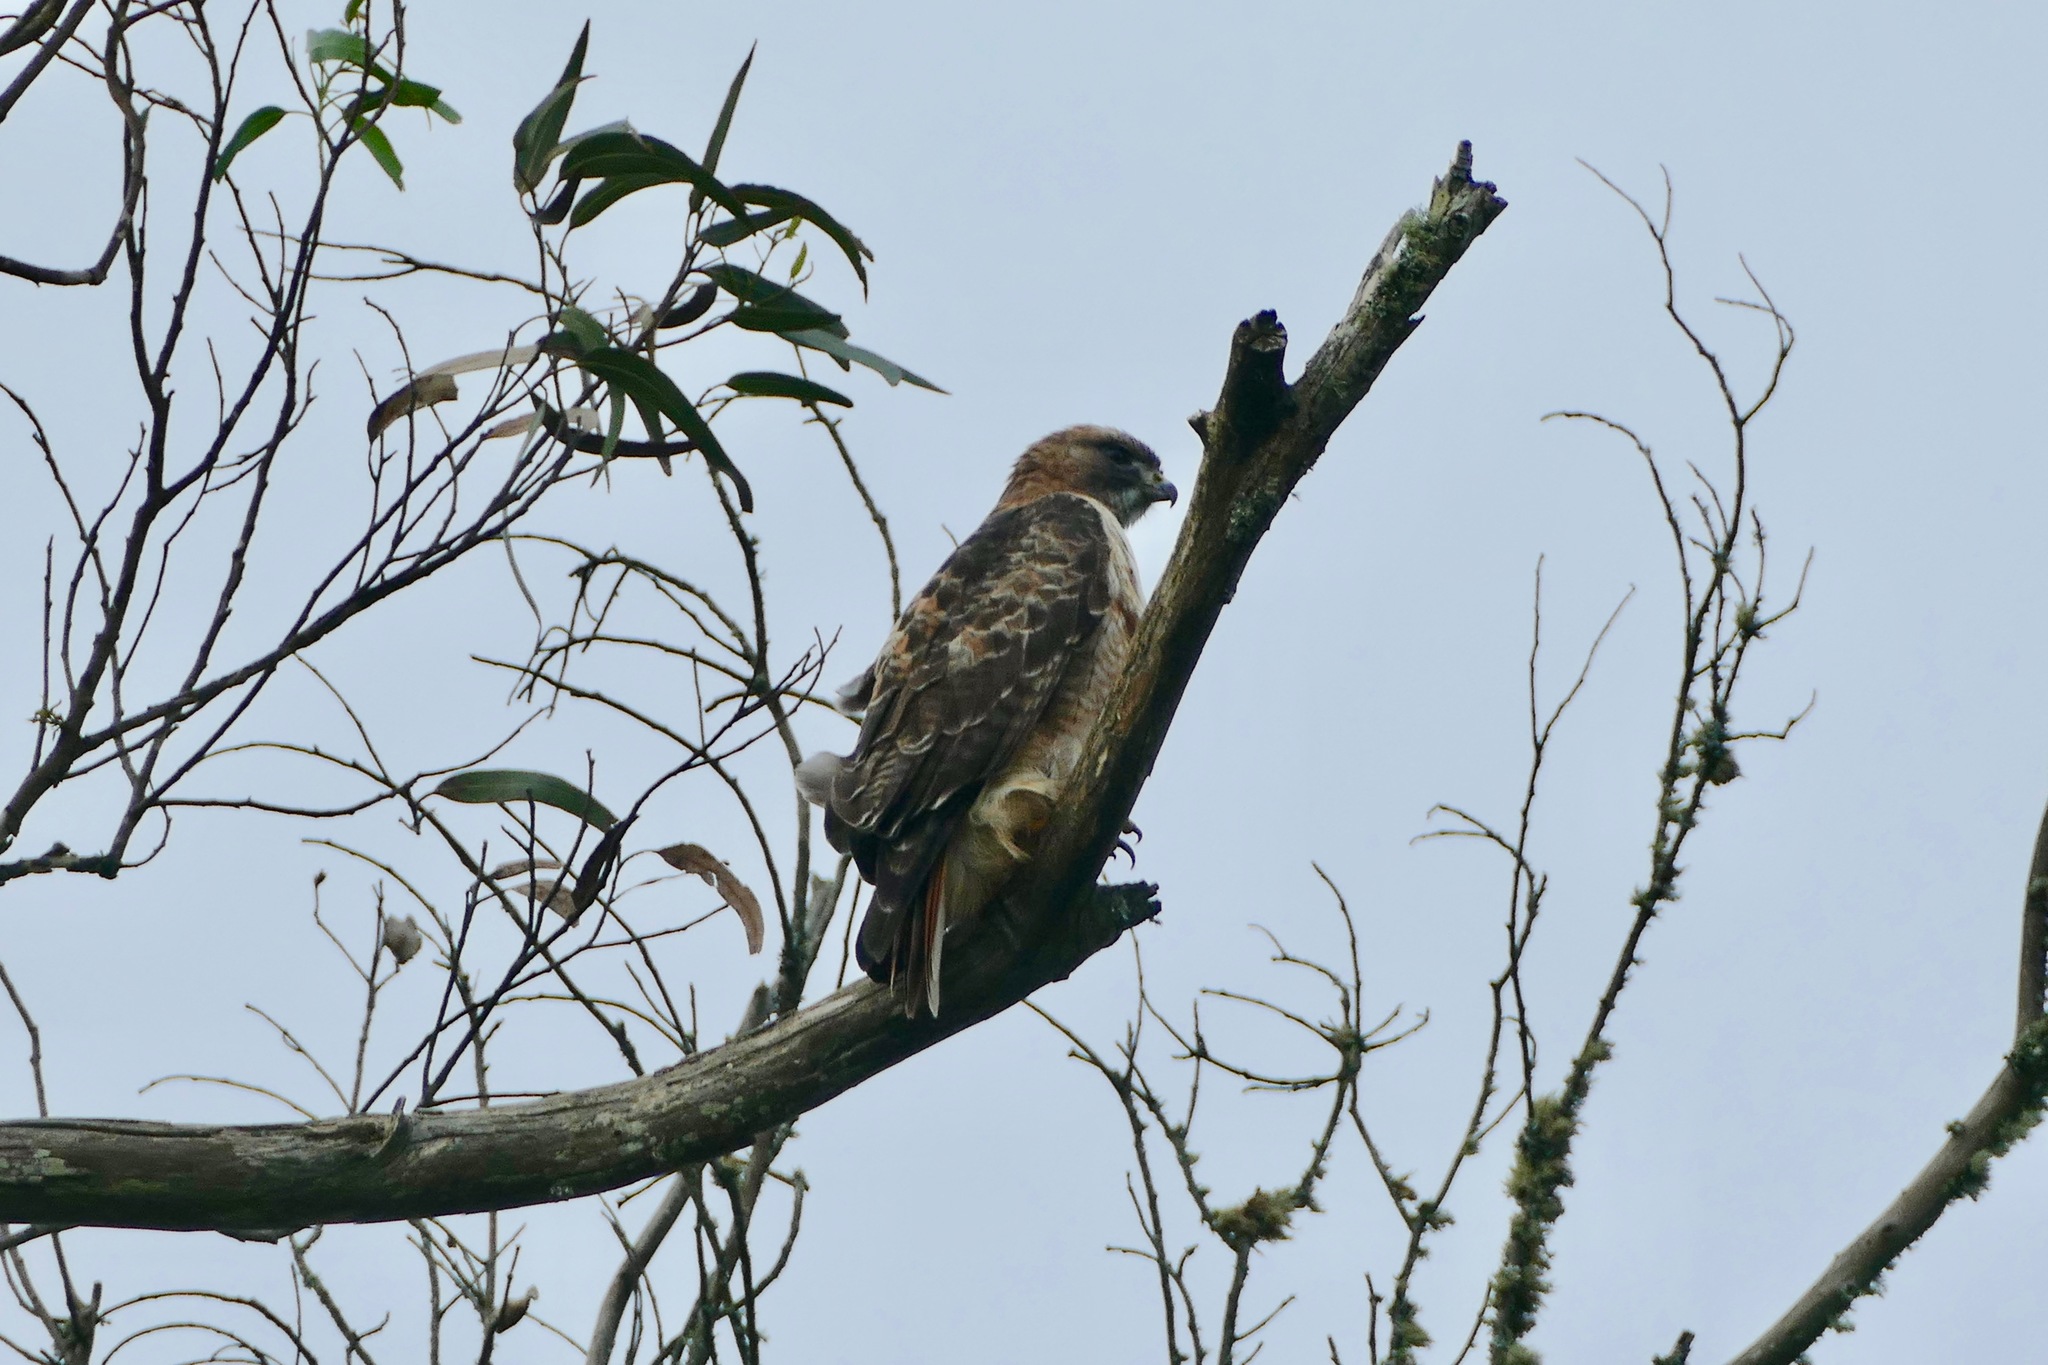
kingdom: Animalia
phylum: Chordata
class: Aves
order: Accipitriformes
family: Accipitridae
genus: Buteo
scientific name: Buteo jamaicensis
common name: Red-tailed hawk
